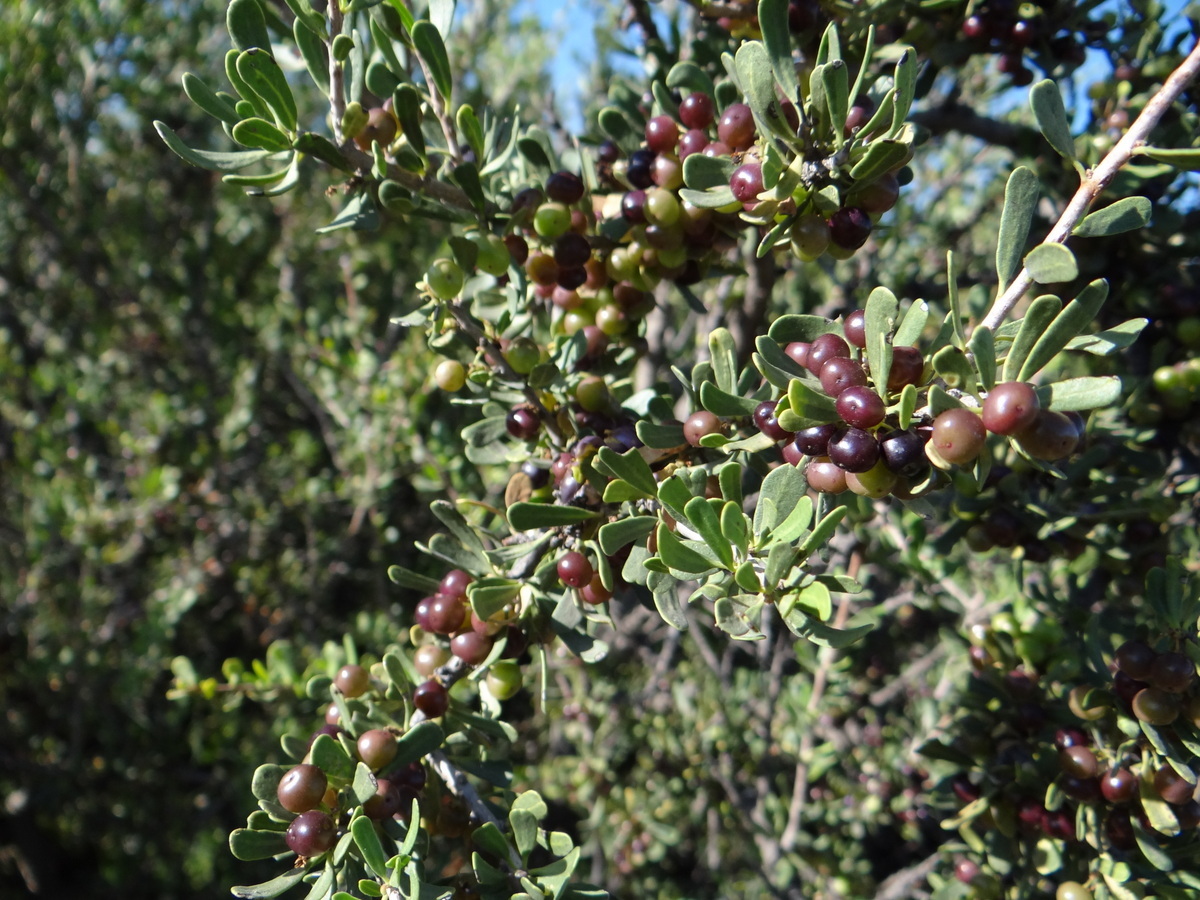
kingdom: Plantae
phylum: Tracheophyta
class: Magnoliopsida
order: Sapindales
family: Anacardiaceae
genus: Schinus
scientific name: Schinus fasciculata
